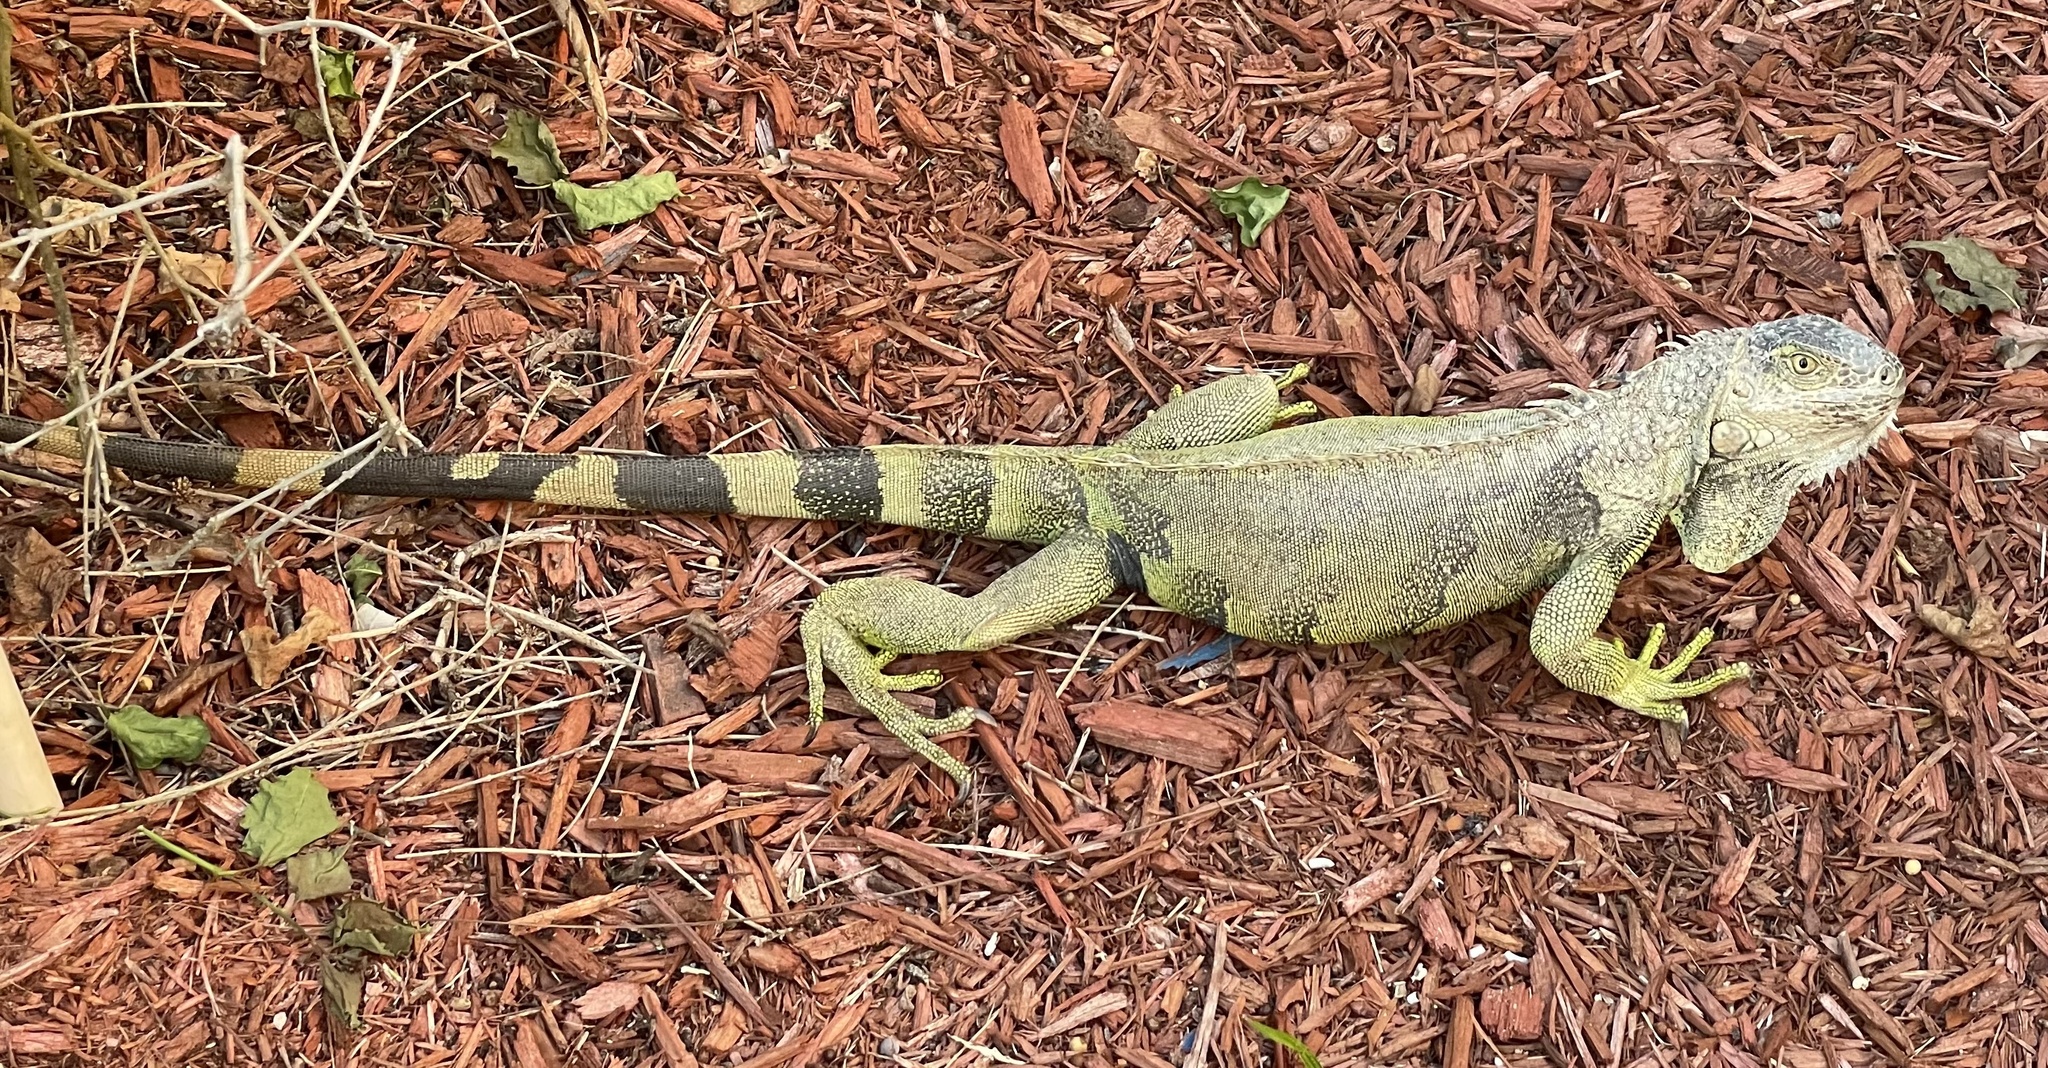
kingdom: Animalia
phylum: Chordata
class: Squamata
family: Iguanidae
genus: Iguana
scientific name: Iguana iguana
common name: Green iguana
